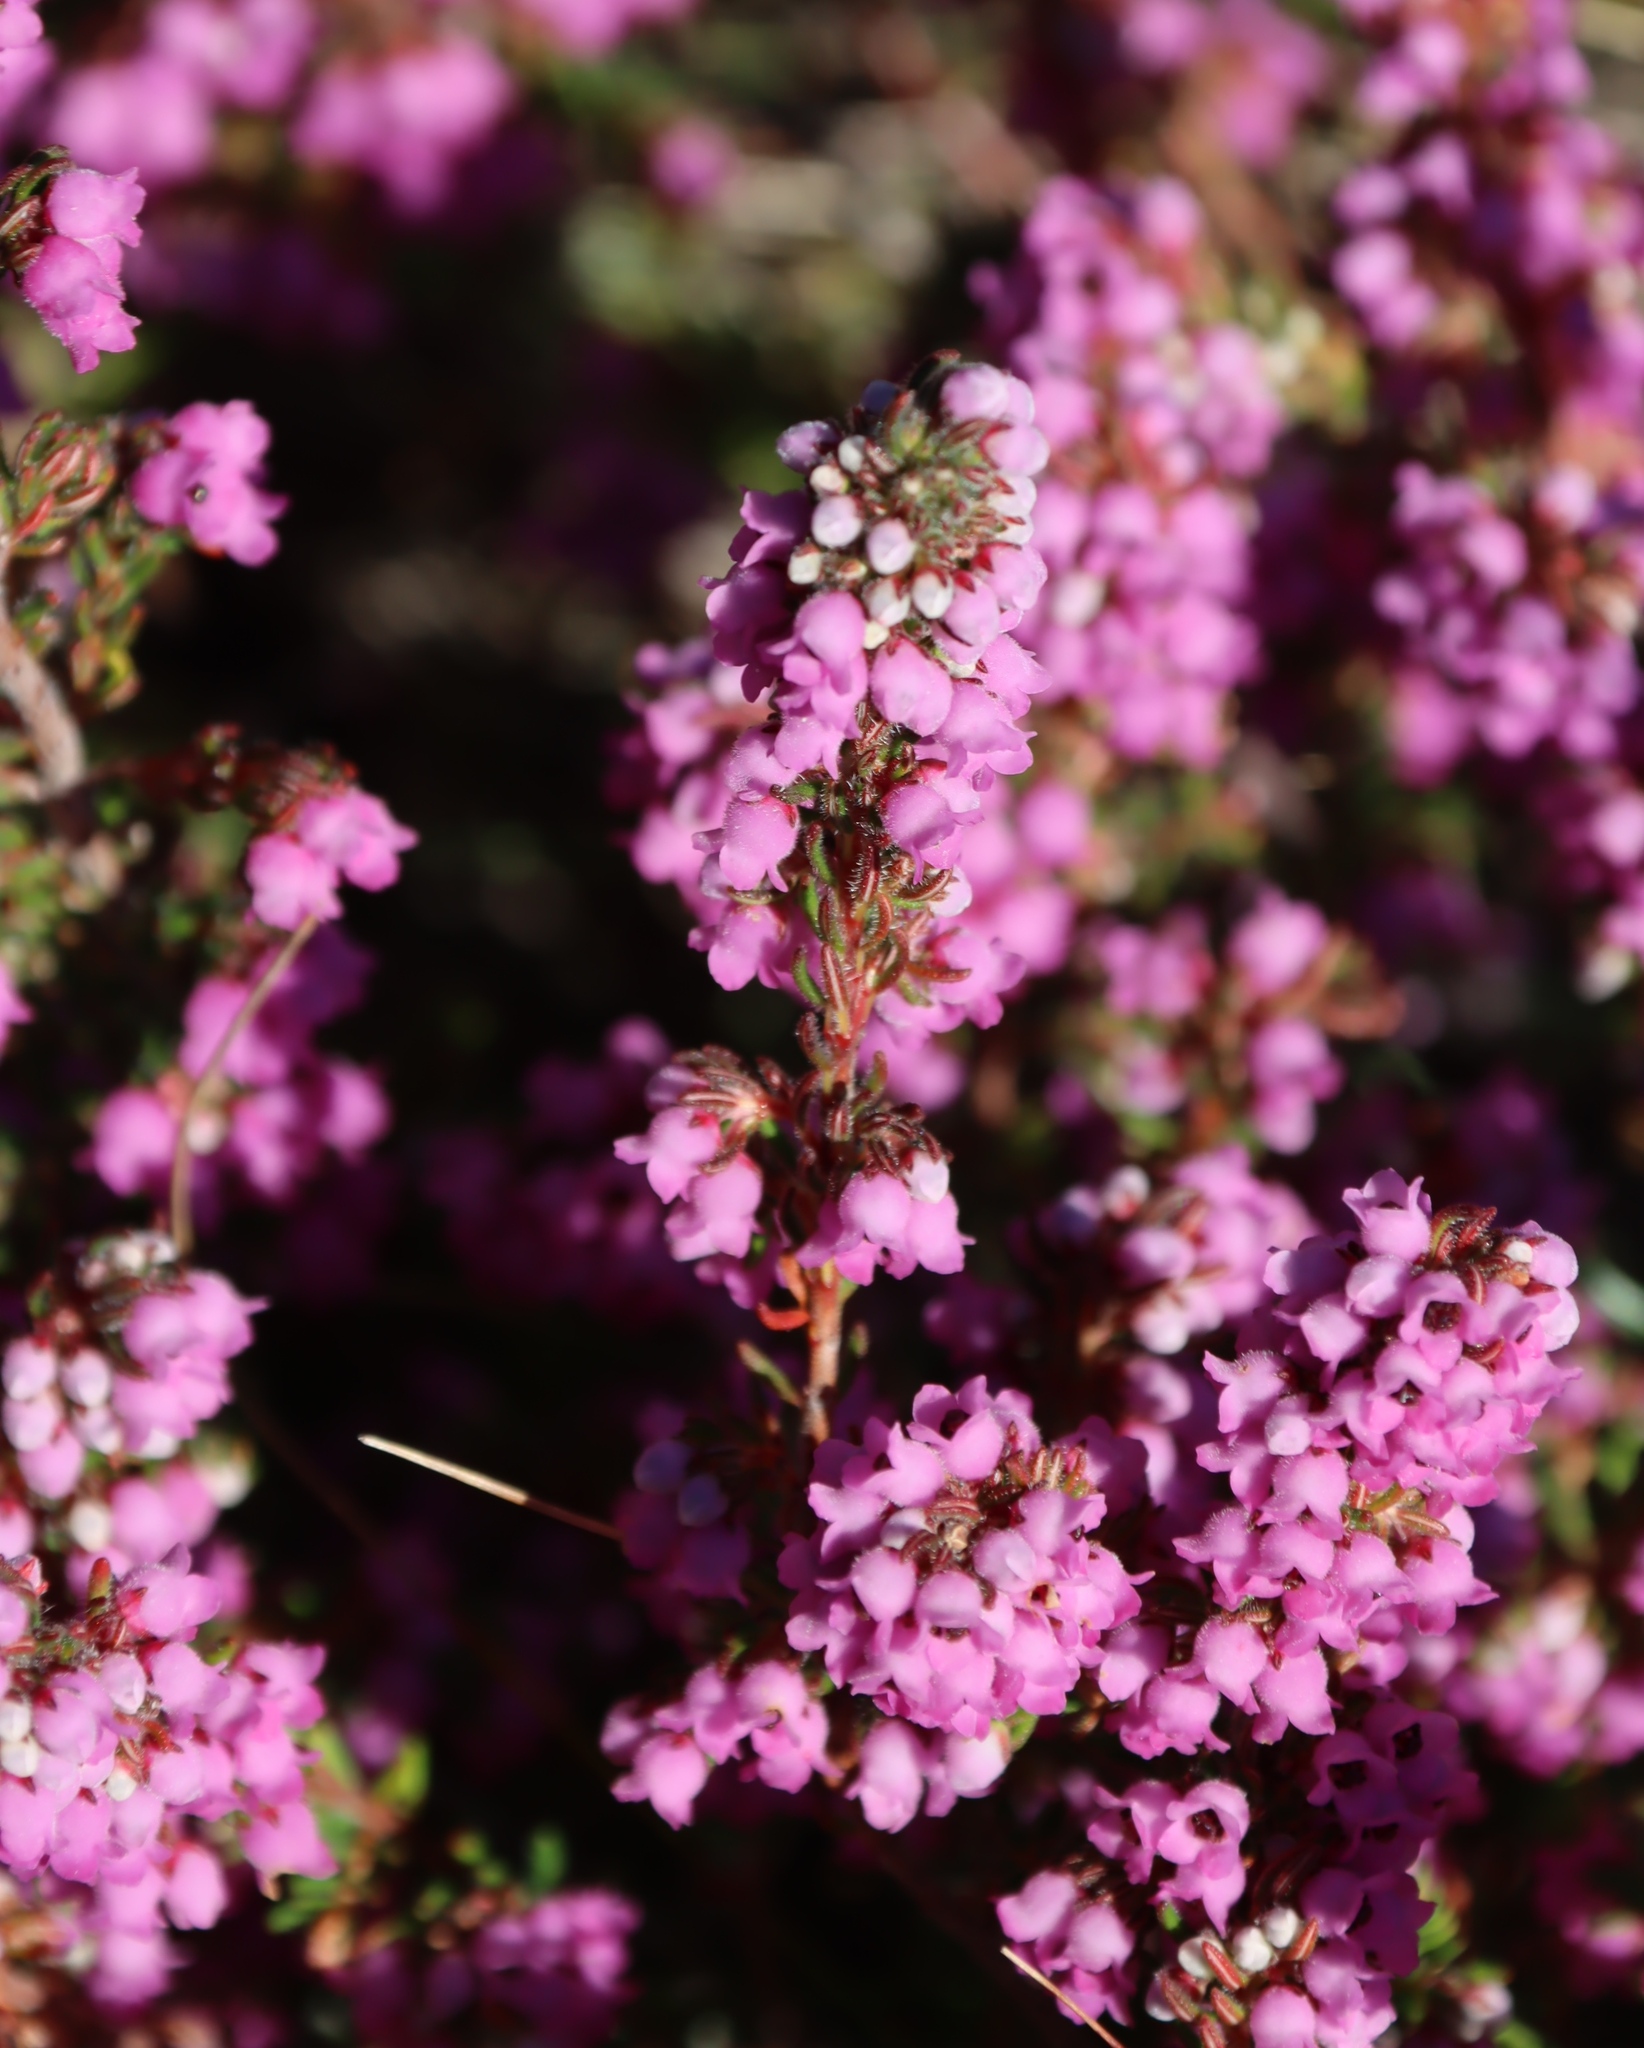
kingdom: Plantae
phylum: Tracheophyta
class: Magnoliopsida
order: Ericales
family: Ericaceae
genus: Erica
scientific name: Erica mollis
